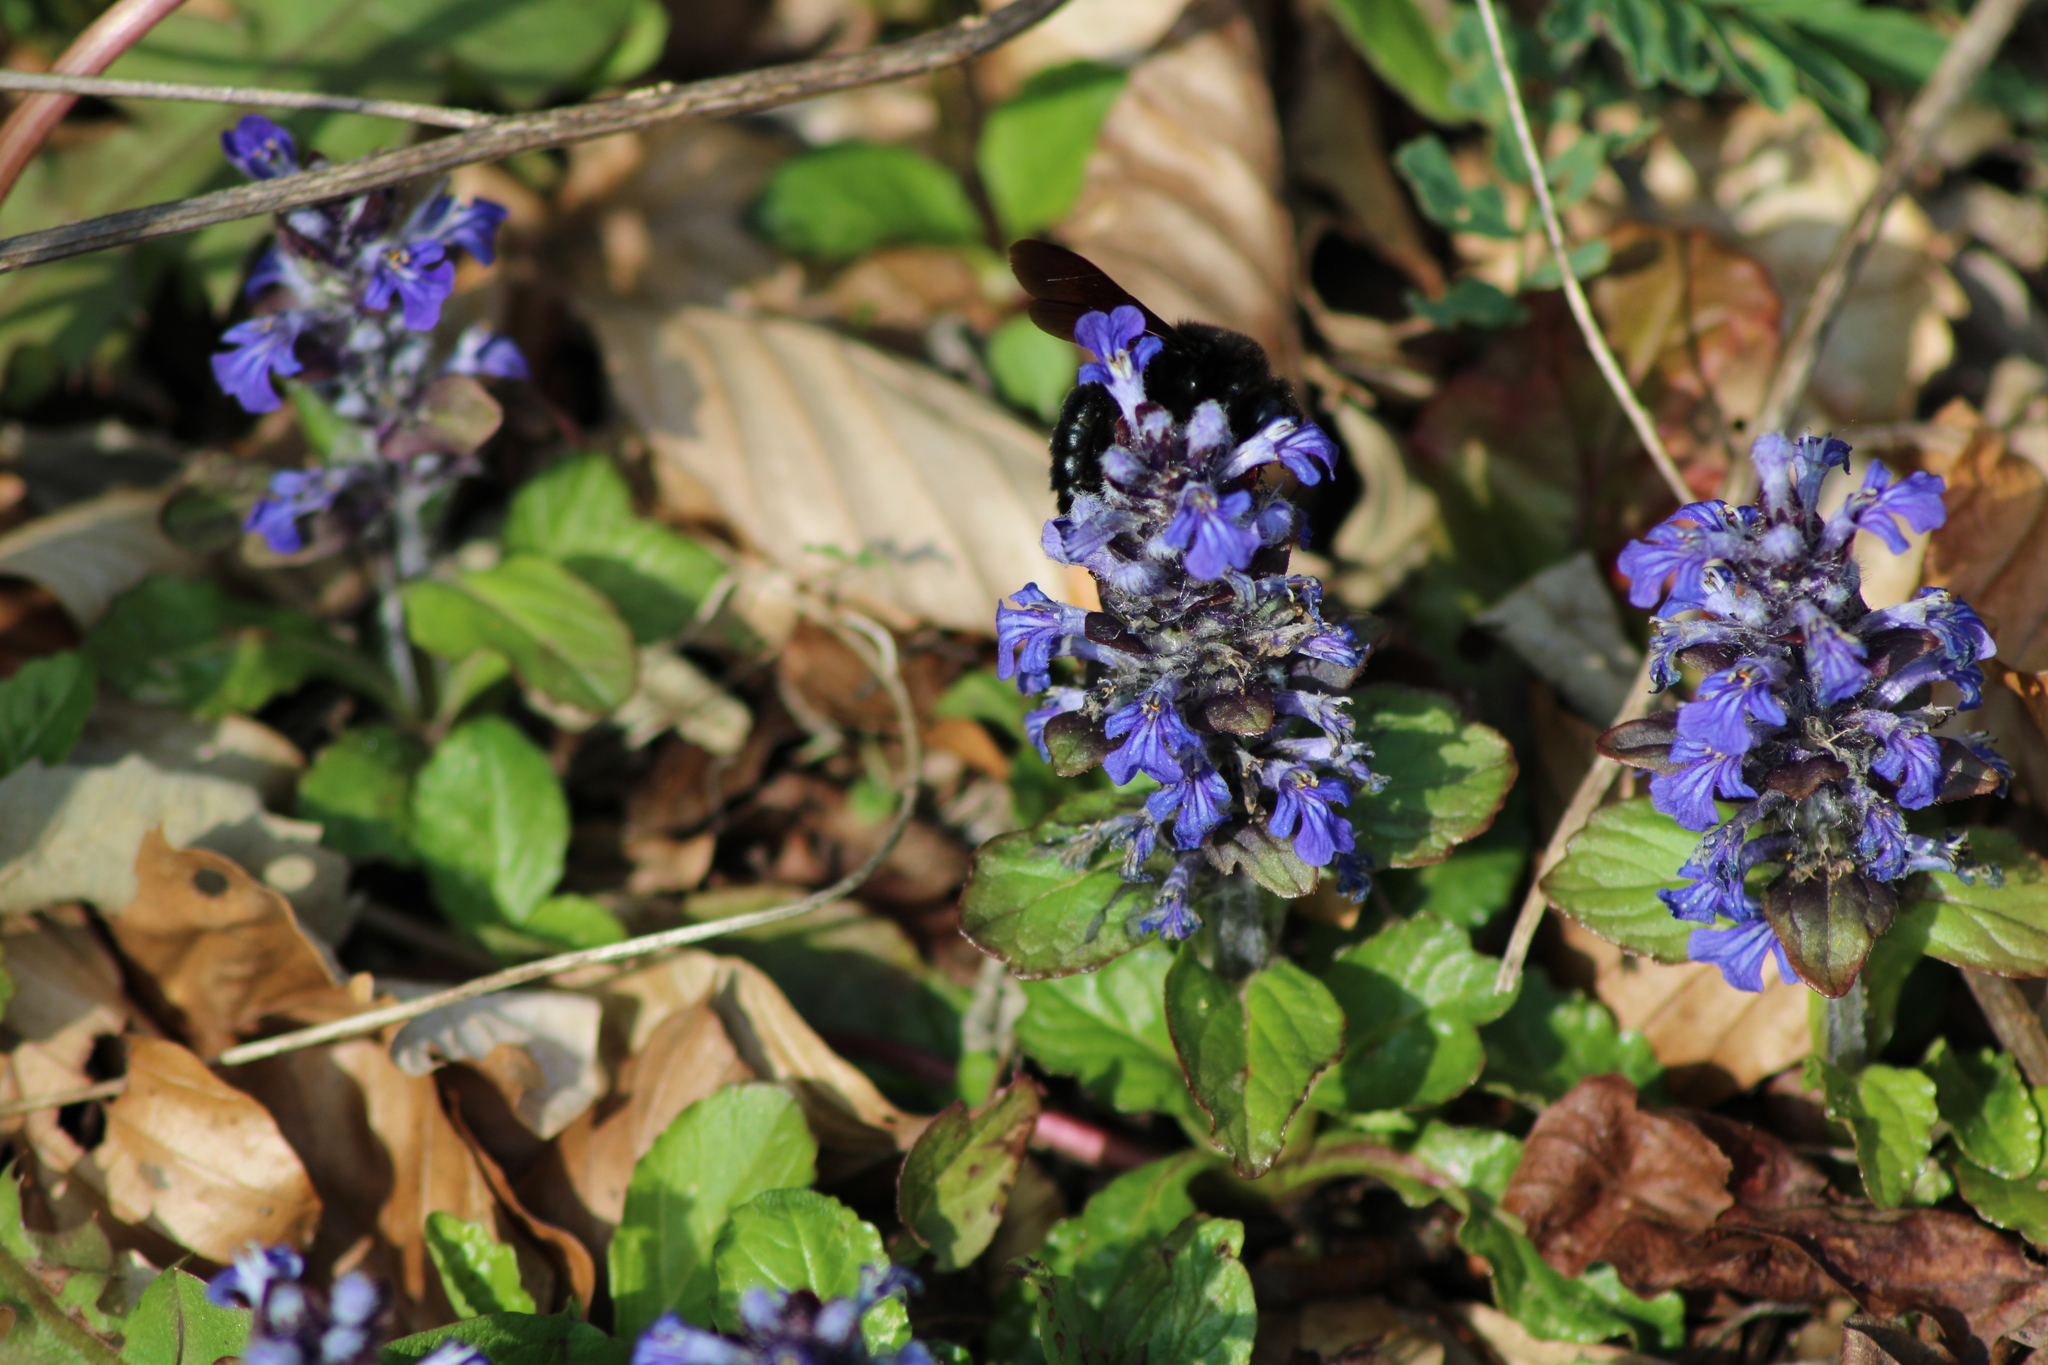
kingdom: Plantae
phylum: Tracheophyta
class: Magnoliopsida
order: Lamiales
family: Lamiaceae
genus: Ajuga
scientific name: Ajuga reptans
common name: Bugle
